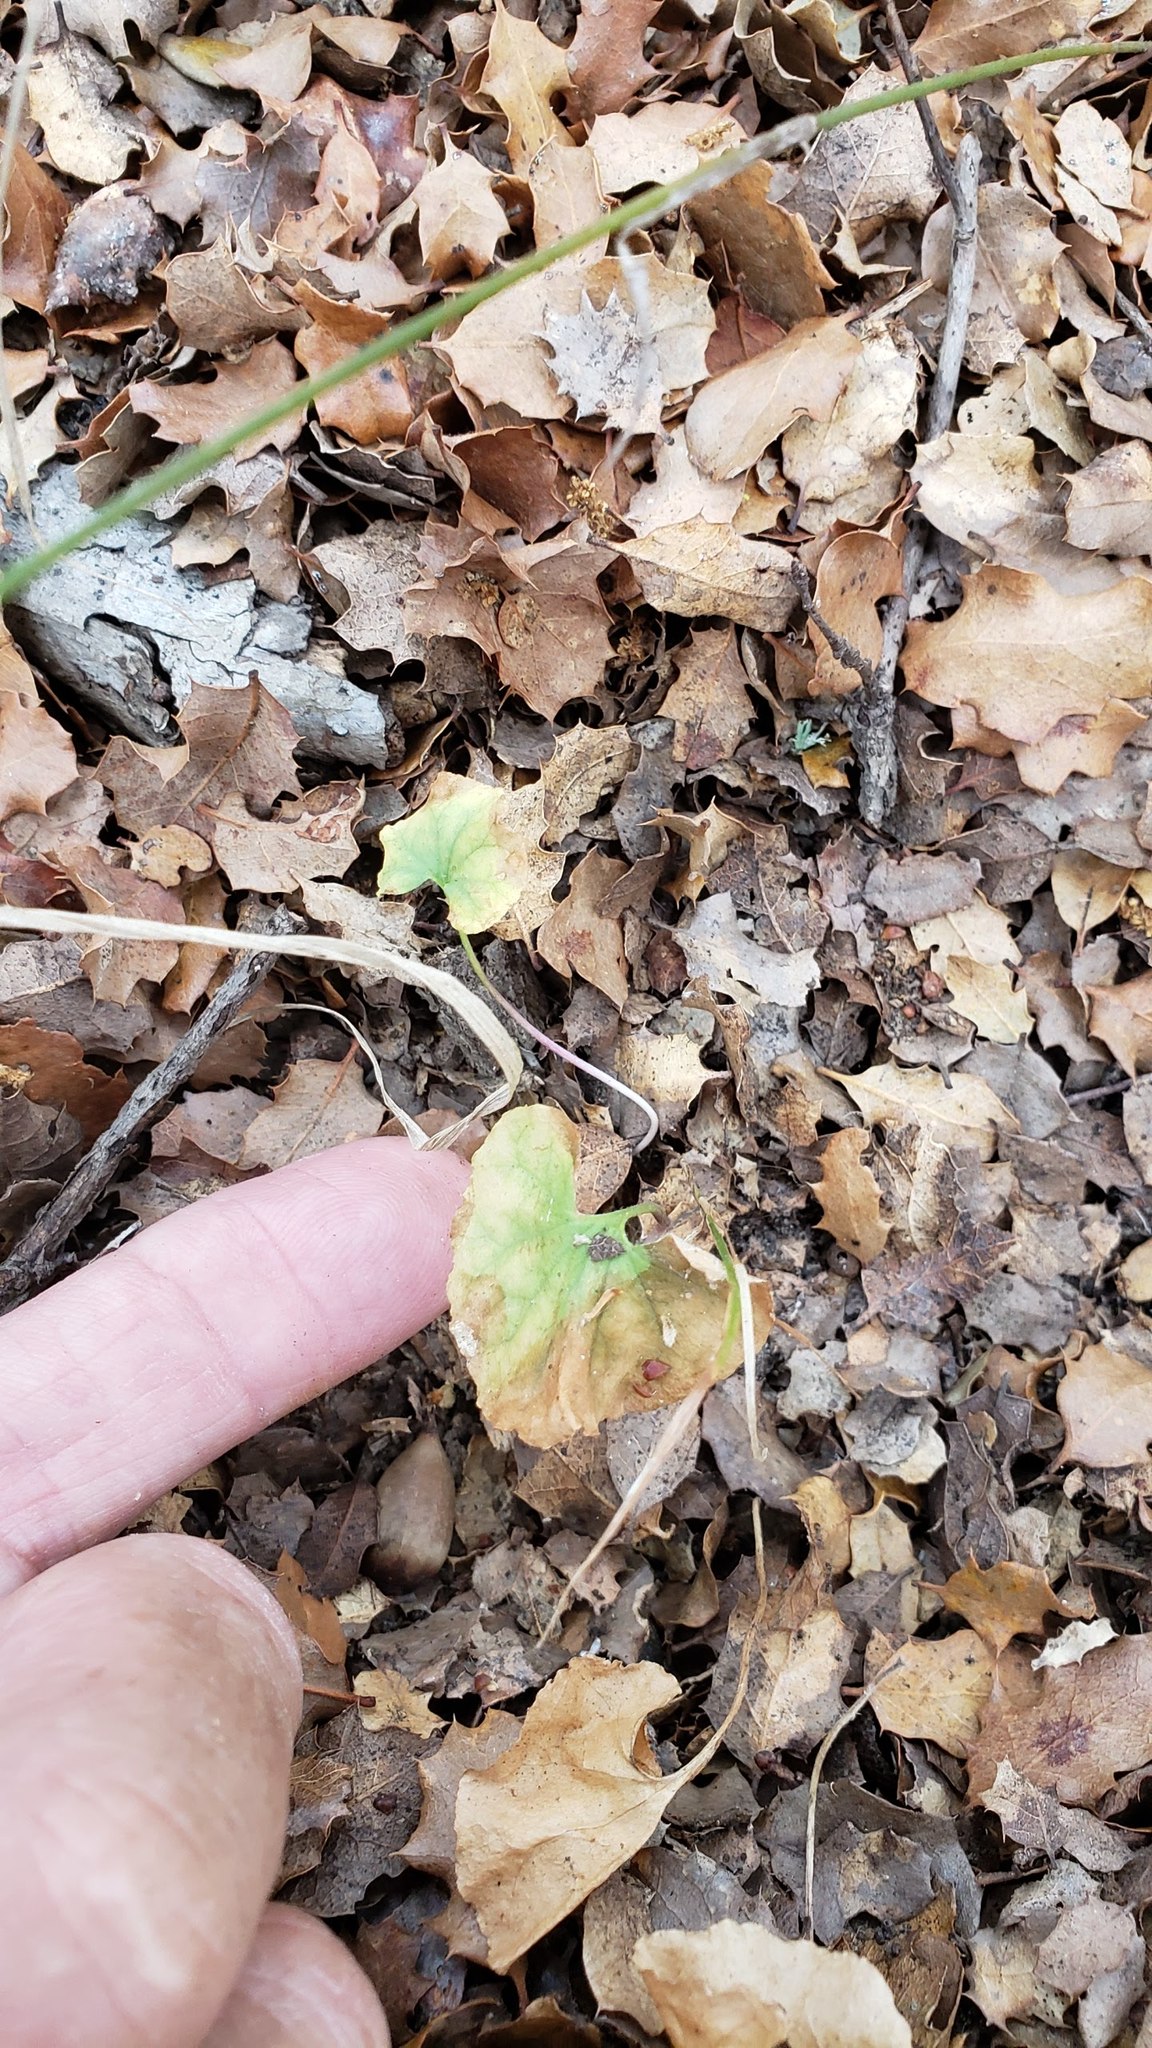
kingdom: Plantae
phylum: Tracheophyta
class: Magnoliopsida
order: Solanales
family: Convolvulaceae
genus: Dichondra
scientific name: Dichondra occidentalis
